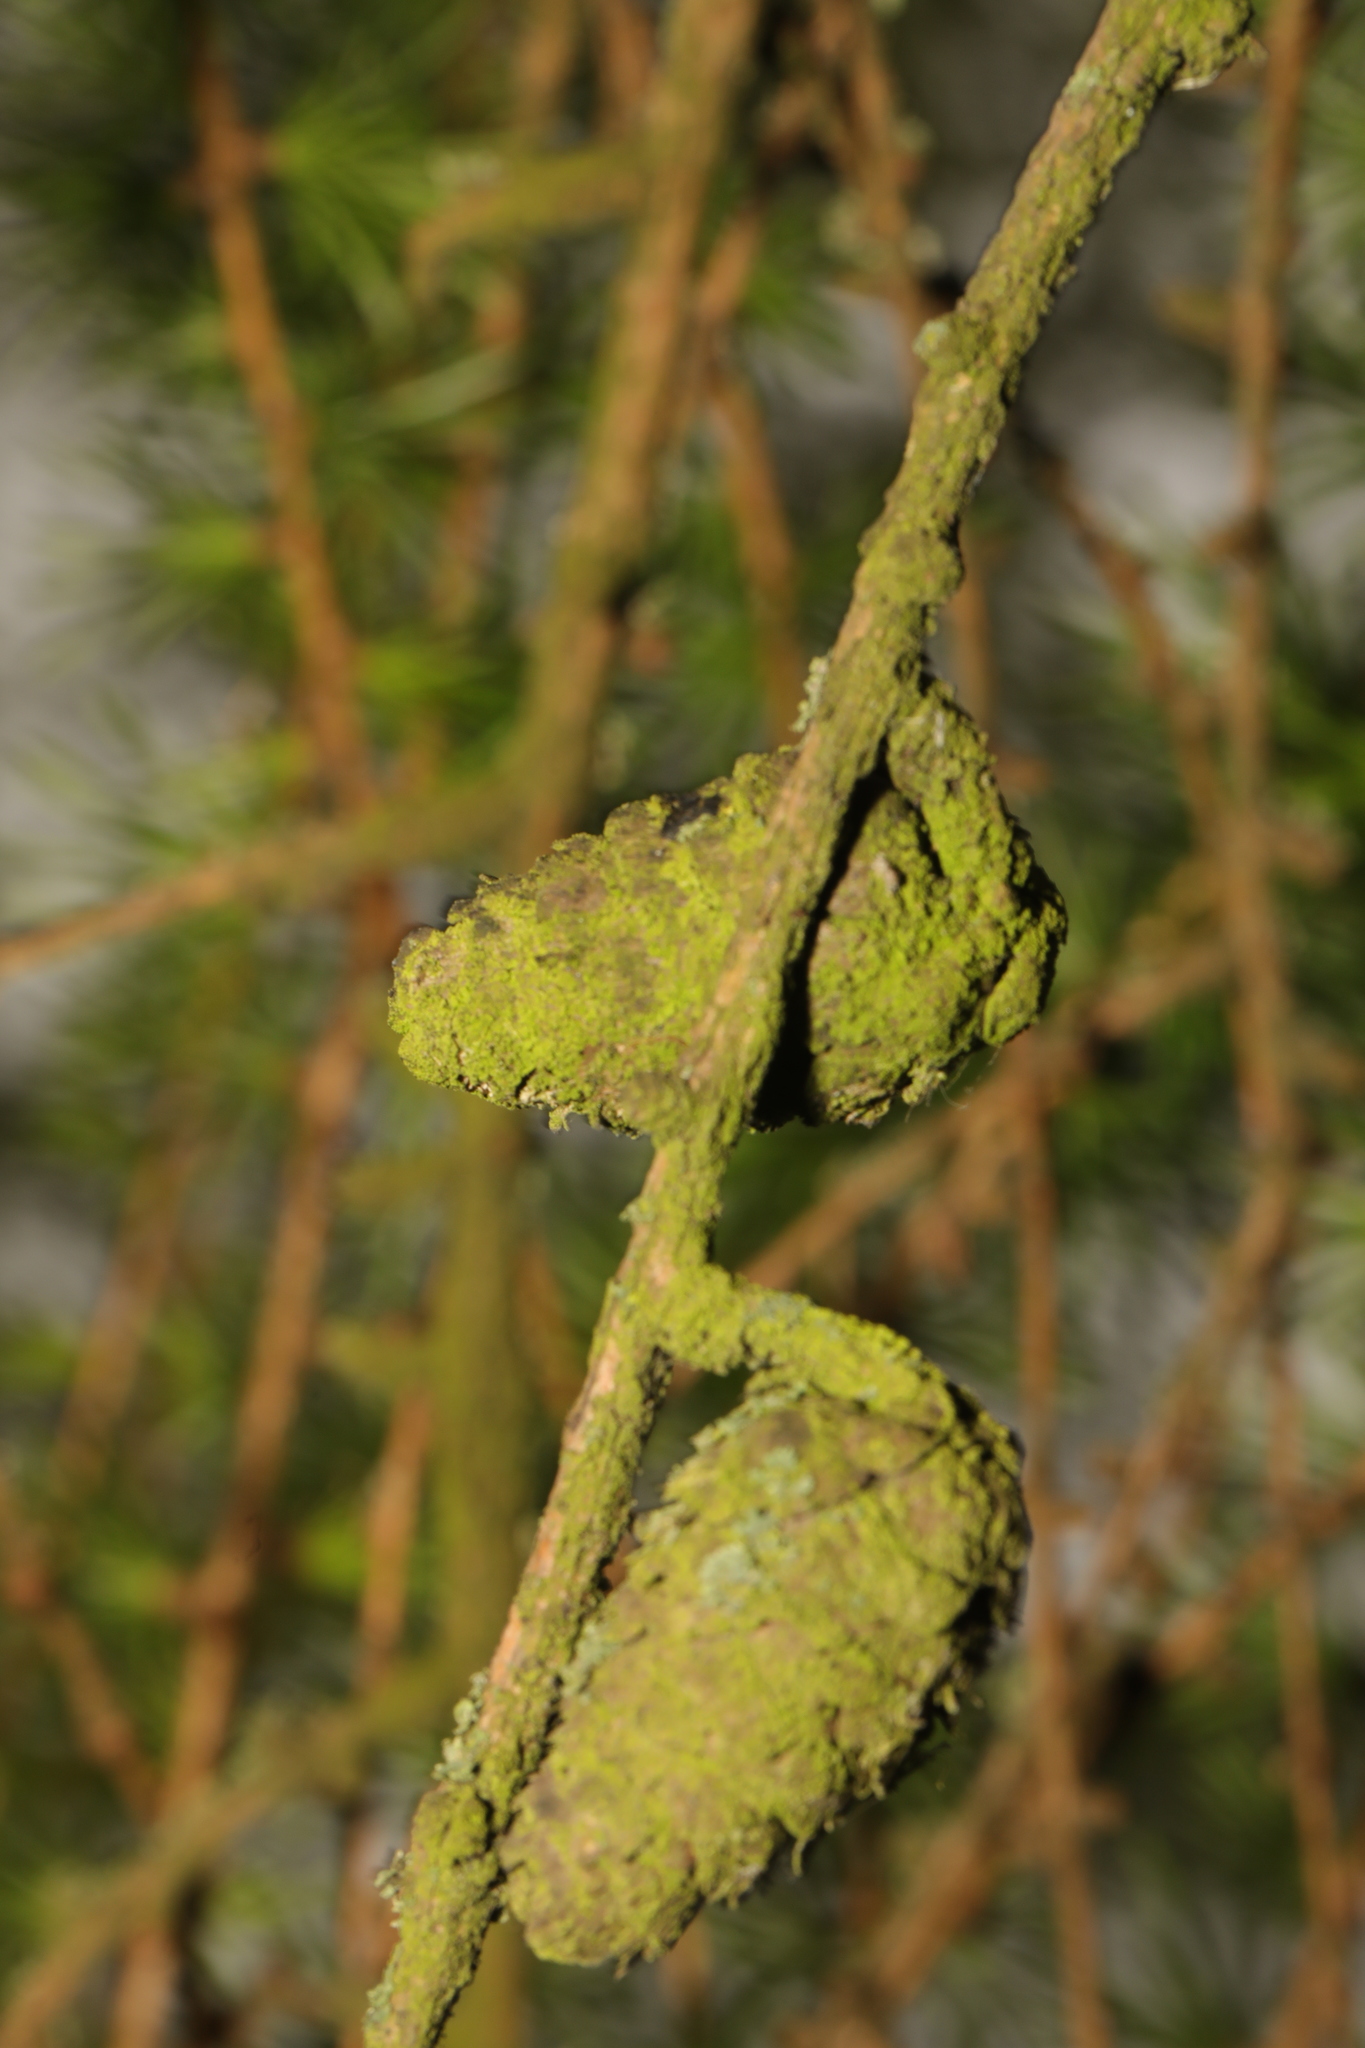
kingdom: Plantae
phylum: Tracheophyta
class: Pinopsida
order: Pinales
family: Pinaceae
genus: Larix
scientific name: Larix decidua
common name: European larch
